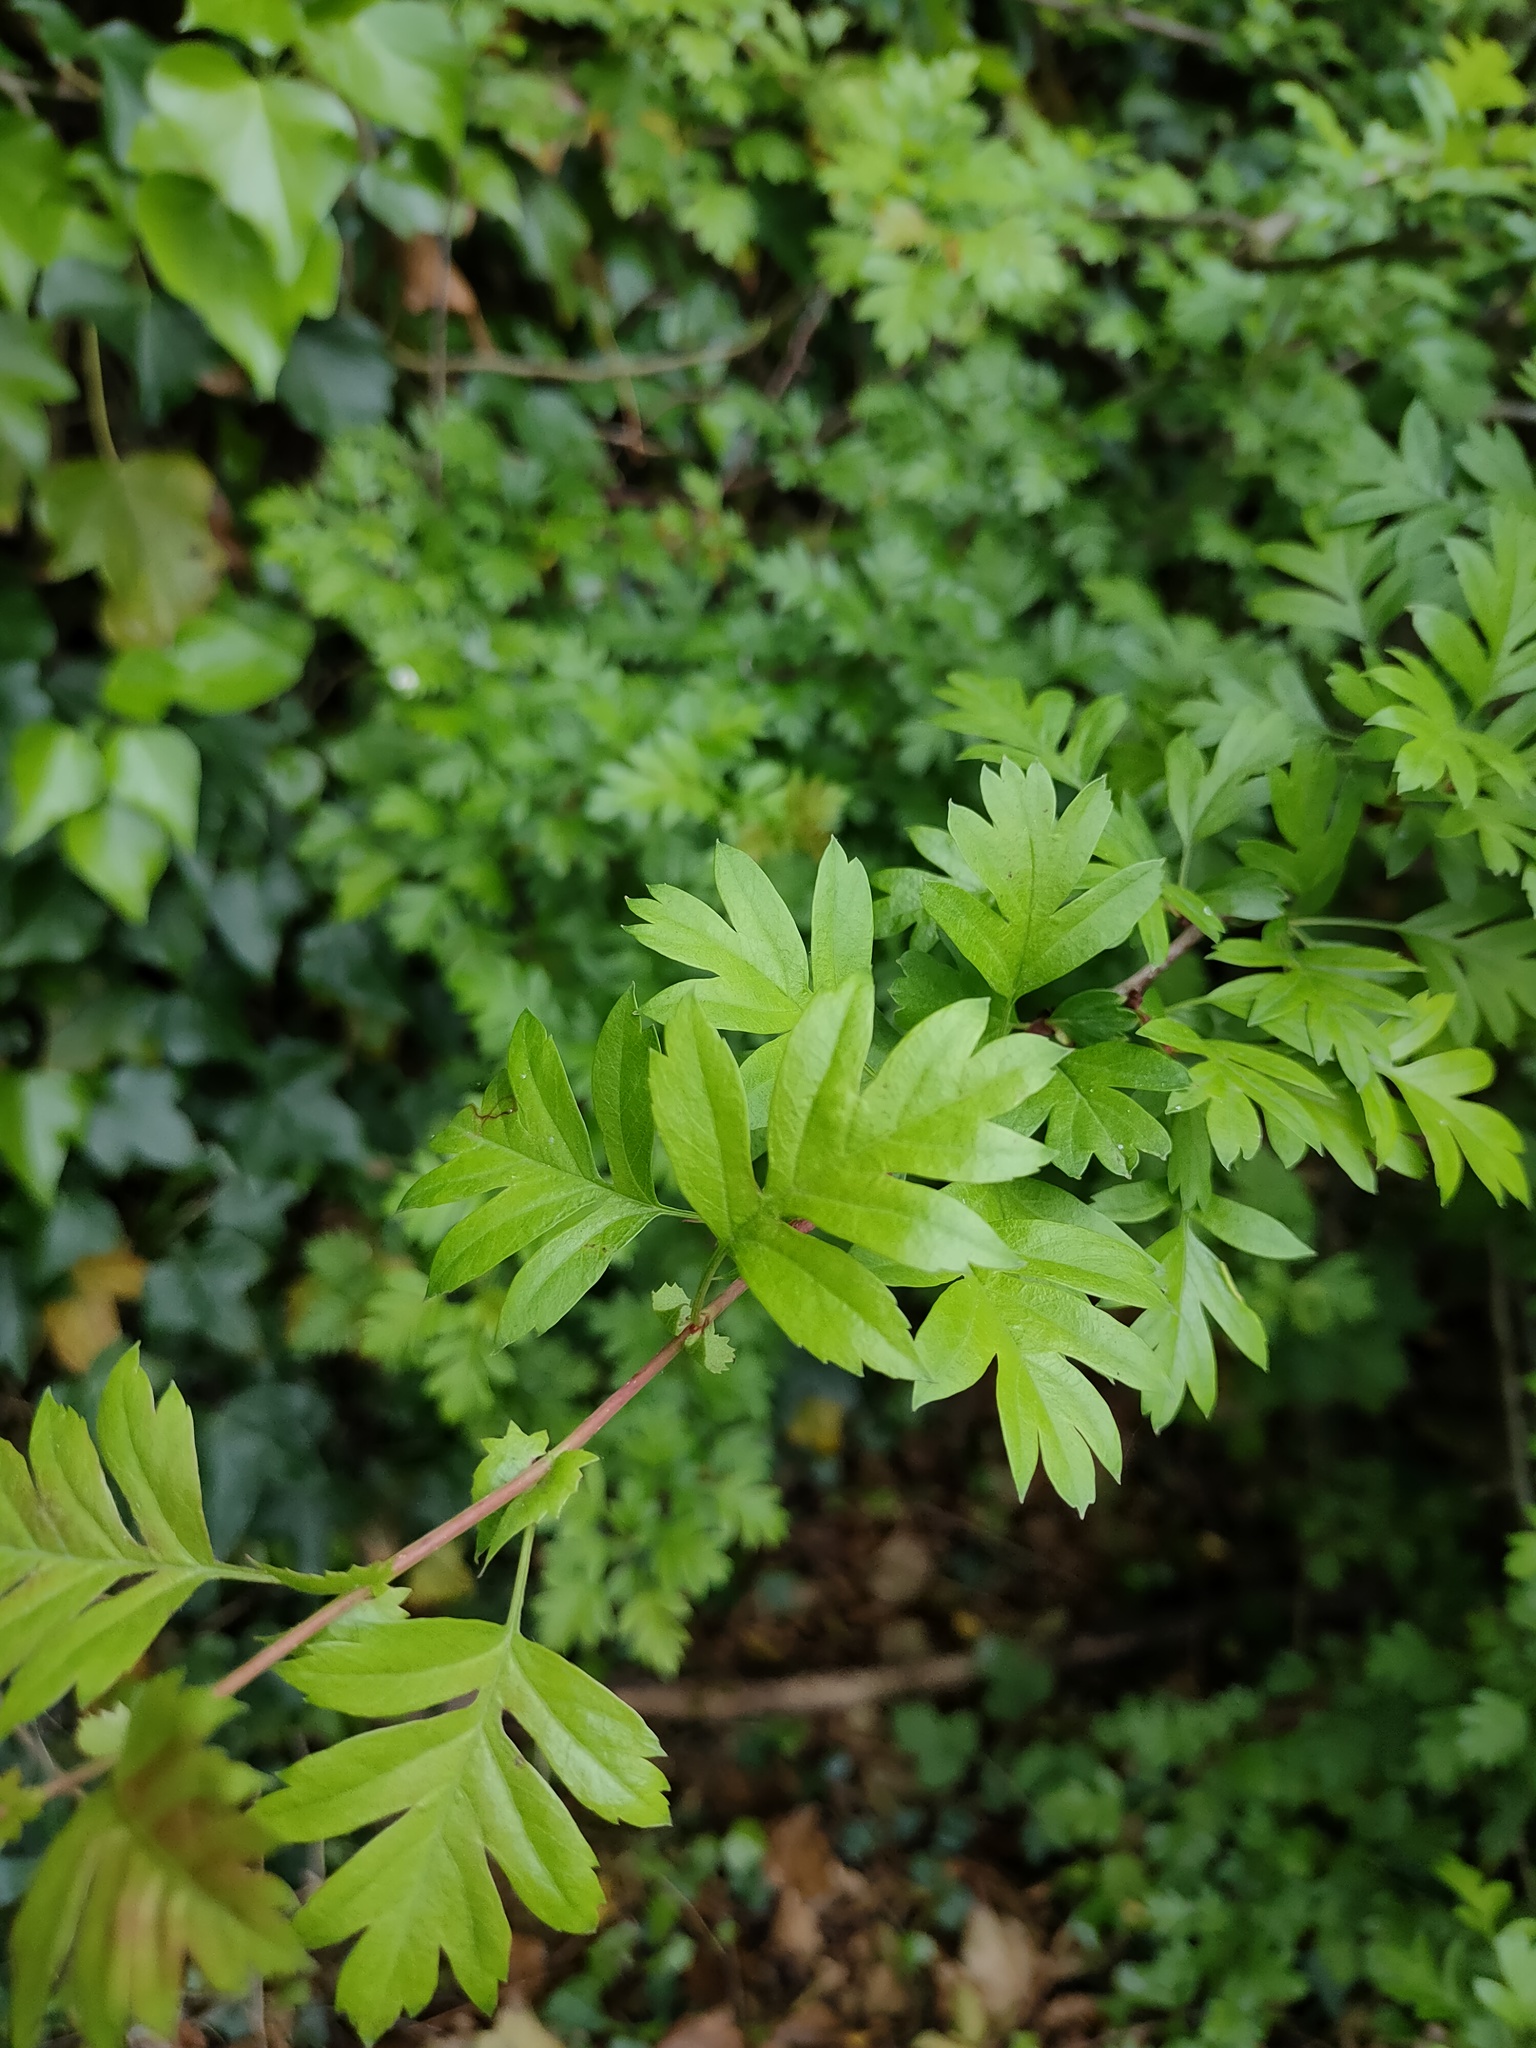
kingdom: Plantae
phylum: Tracheophyta
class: Magnoliopsida
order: Rosales
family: Rosaceae
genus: Crataegus
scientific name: Crataegus monogyna
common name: Hawthorn
